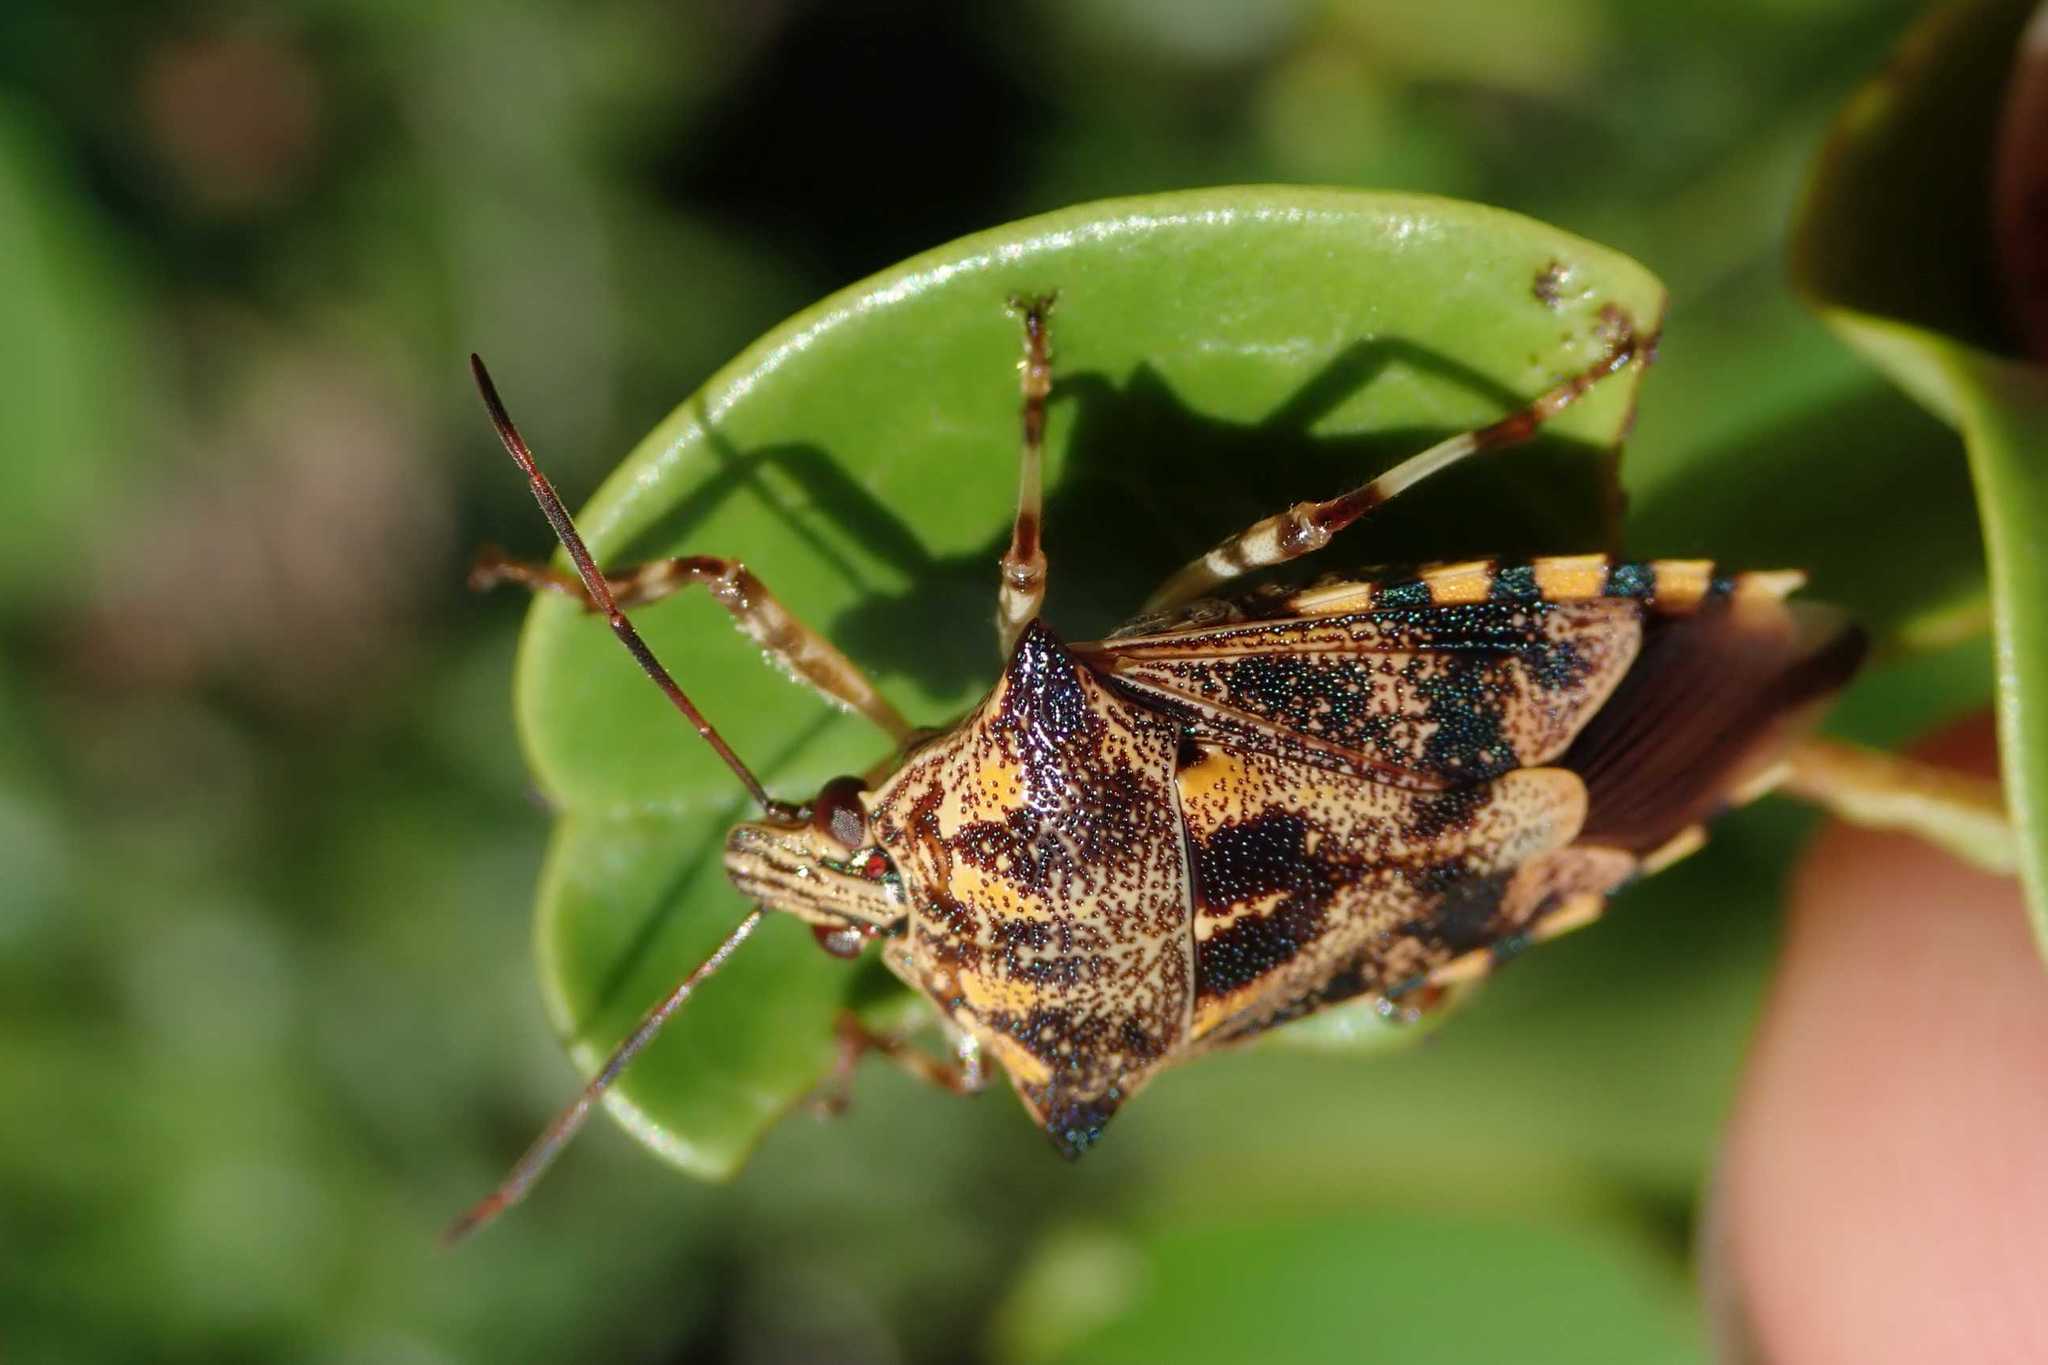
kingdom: Animalia
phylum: Arthropoda
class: Insecta
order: Hemiptera
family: Pentatomidae
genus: Macrorhaphis
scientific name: Macrorhaphis acuta
